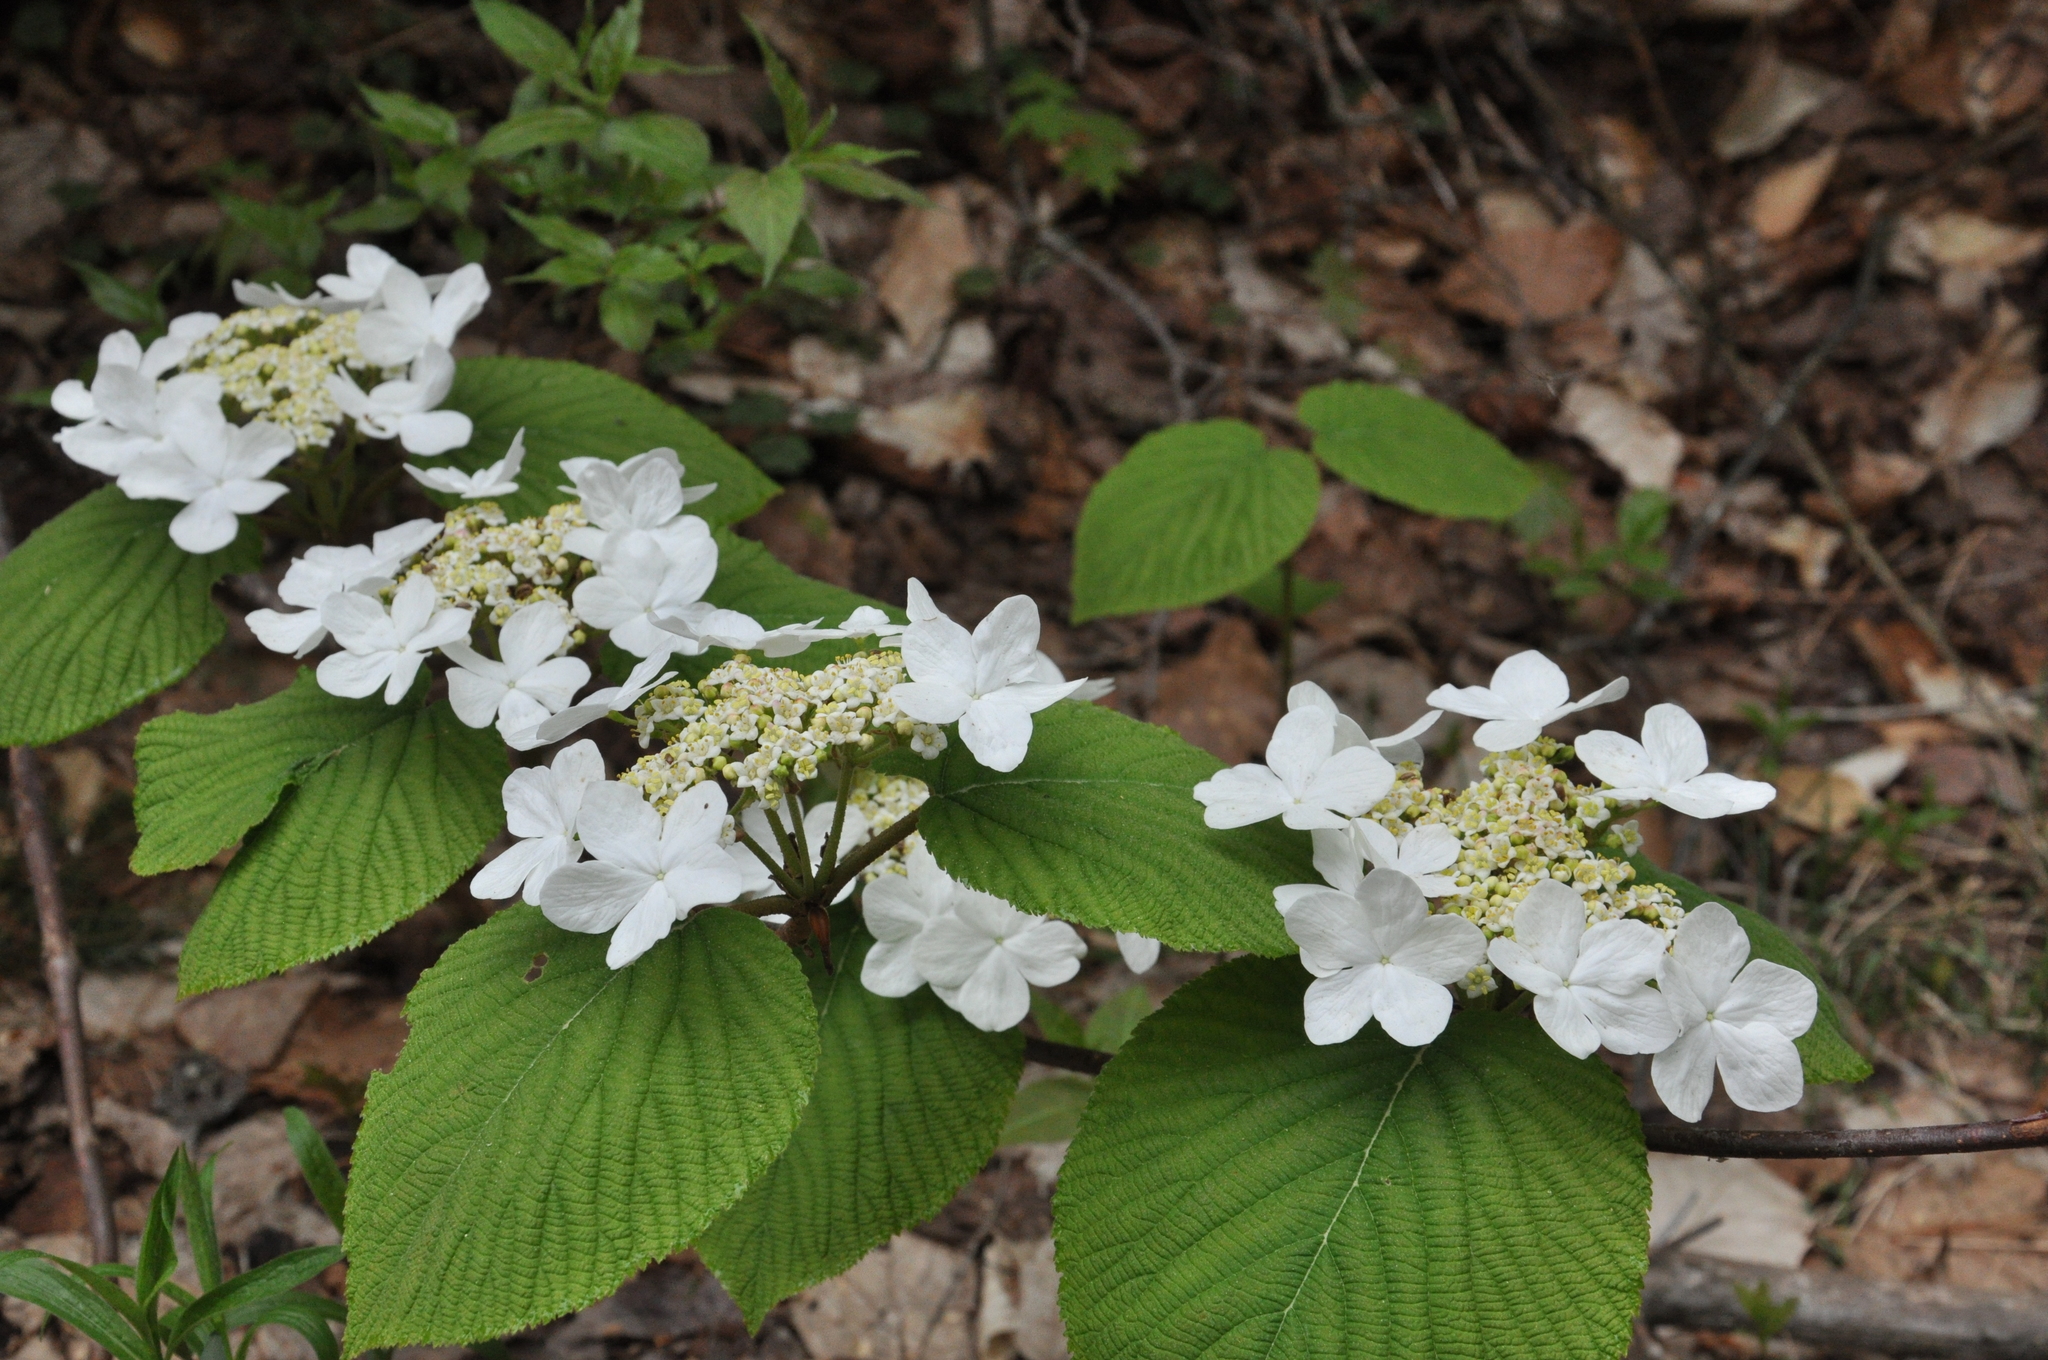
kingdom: Plantae
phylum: Tracheophyta
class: Magnoliopsida
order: Dipsacales
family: Viburnaceae
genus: Viburnum
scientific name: Viburnum lantanoides
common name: Hobblebush
